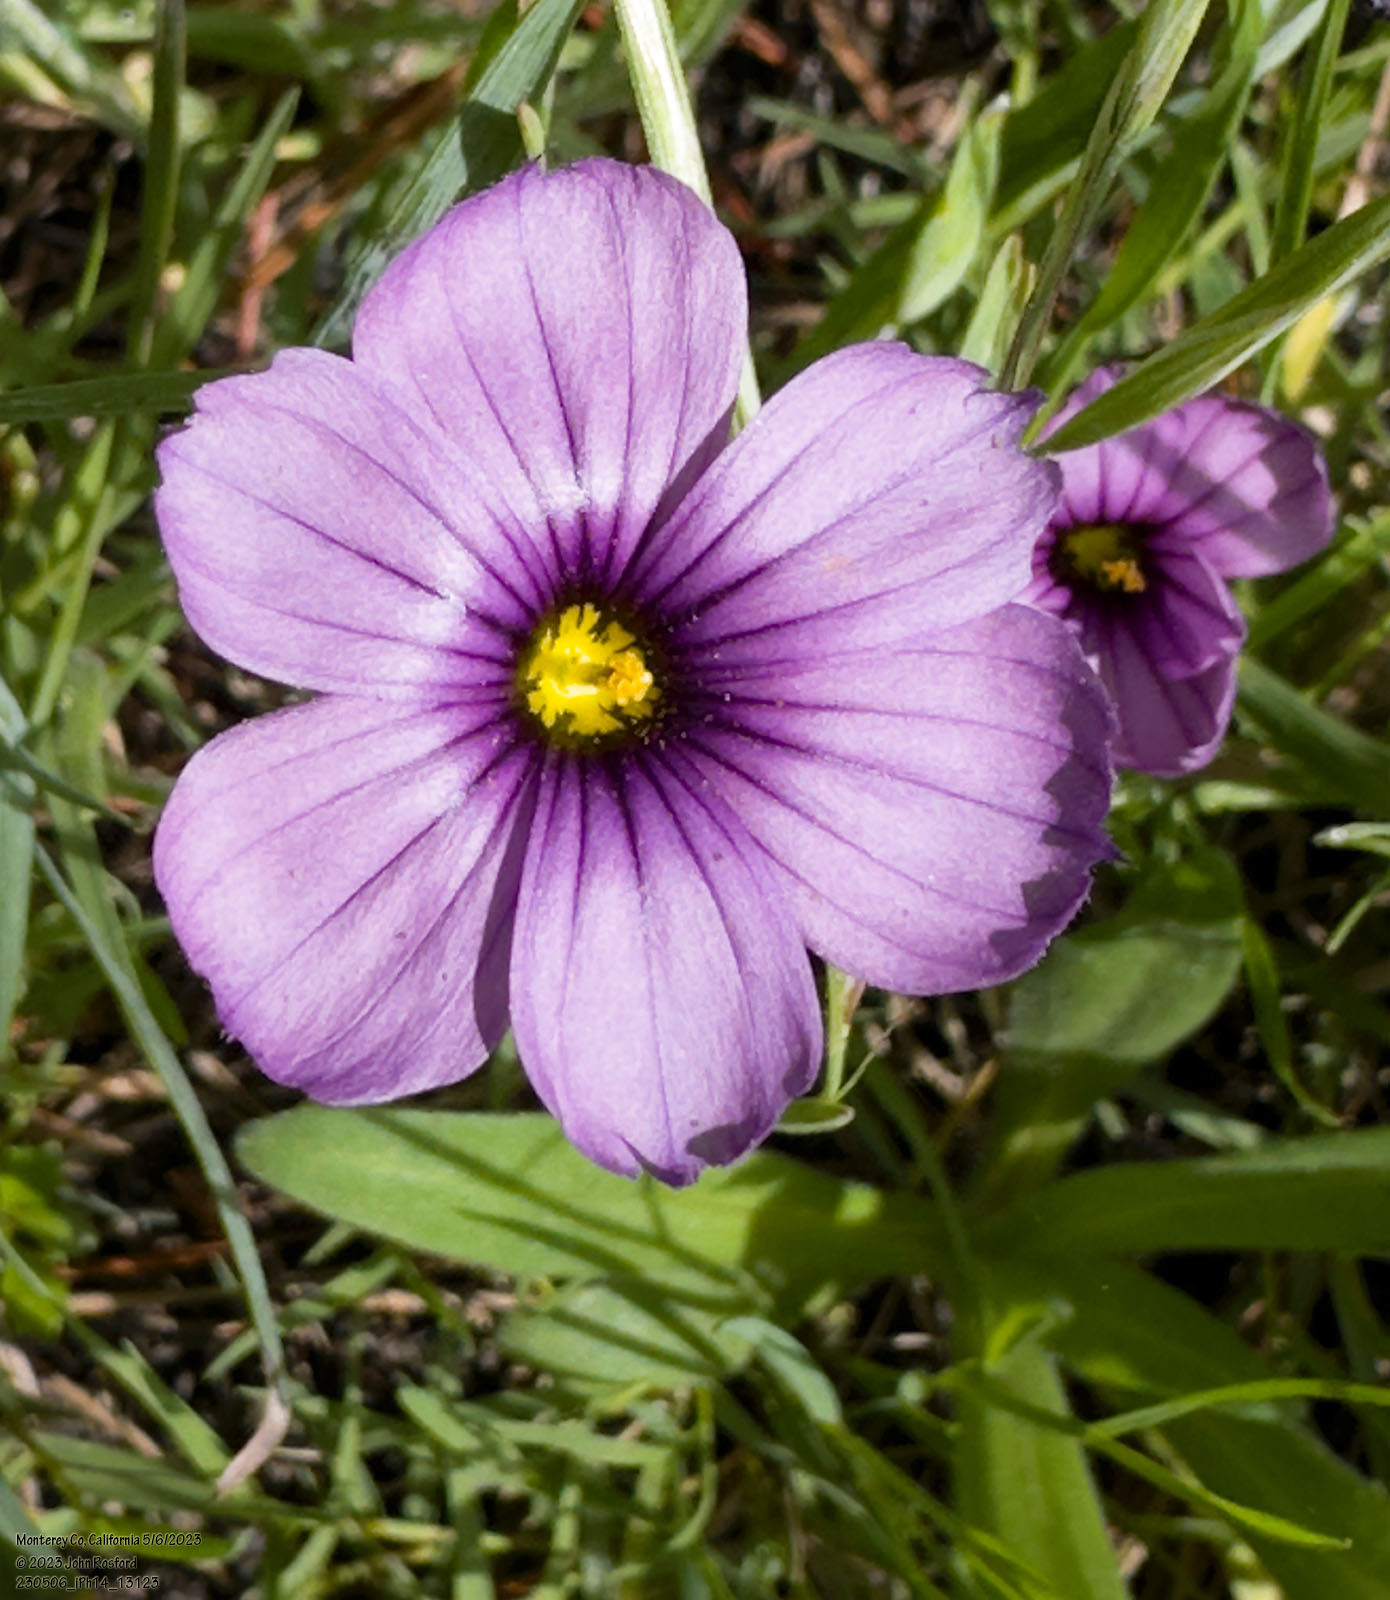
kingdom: Plantae
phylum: Tracheophyta
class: Liliopsida
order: Asparagales
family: Iridaceae
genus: Sisyrinchium
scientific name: Sisyrinchium bellum
